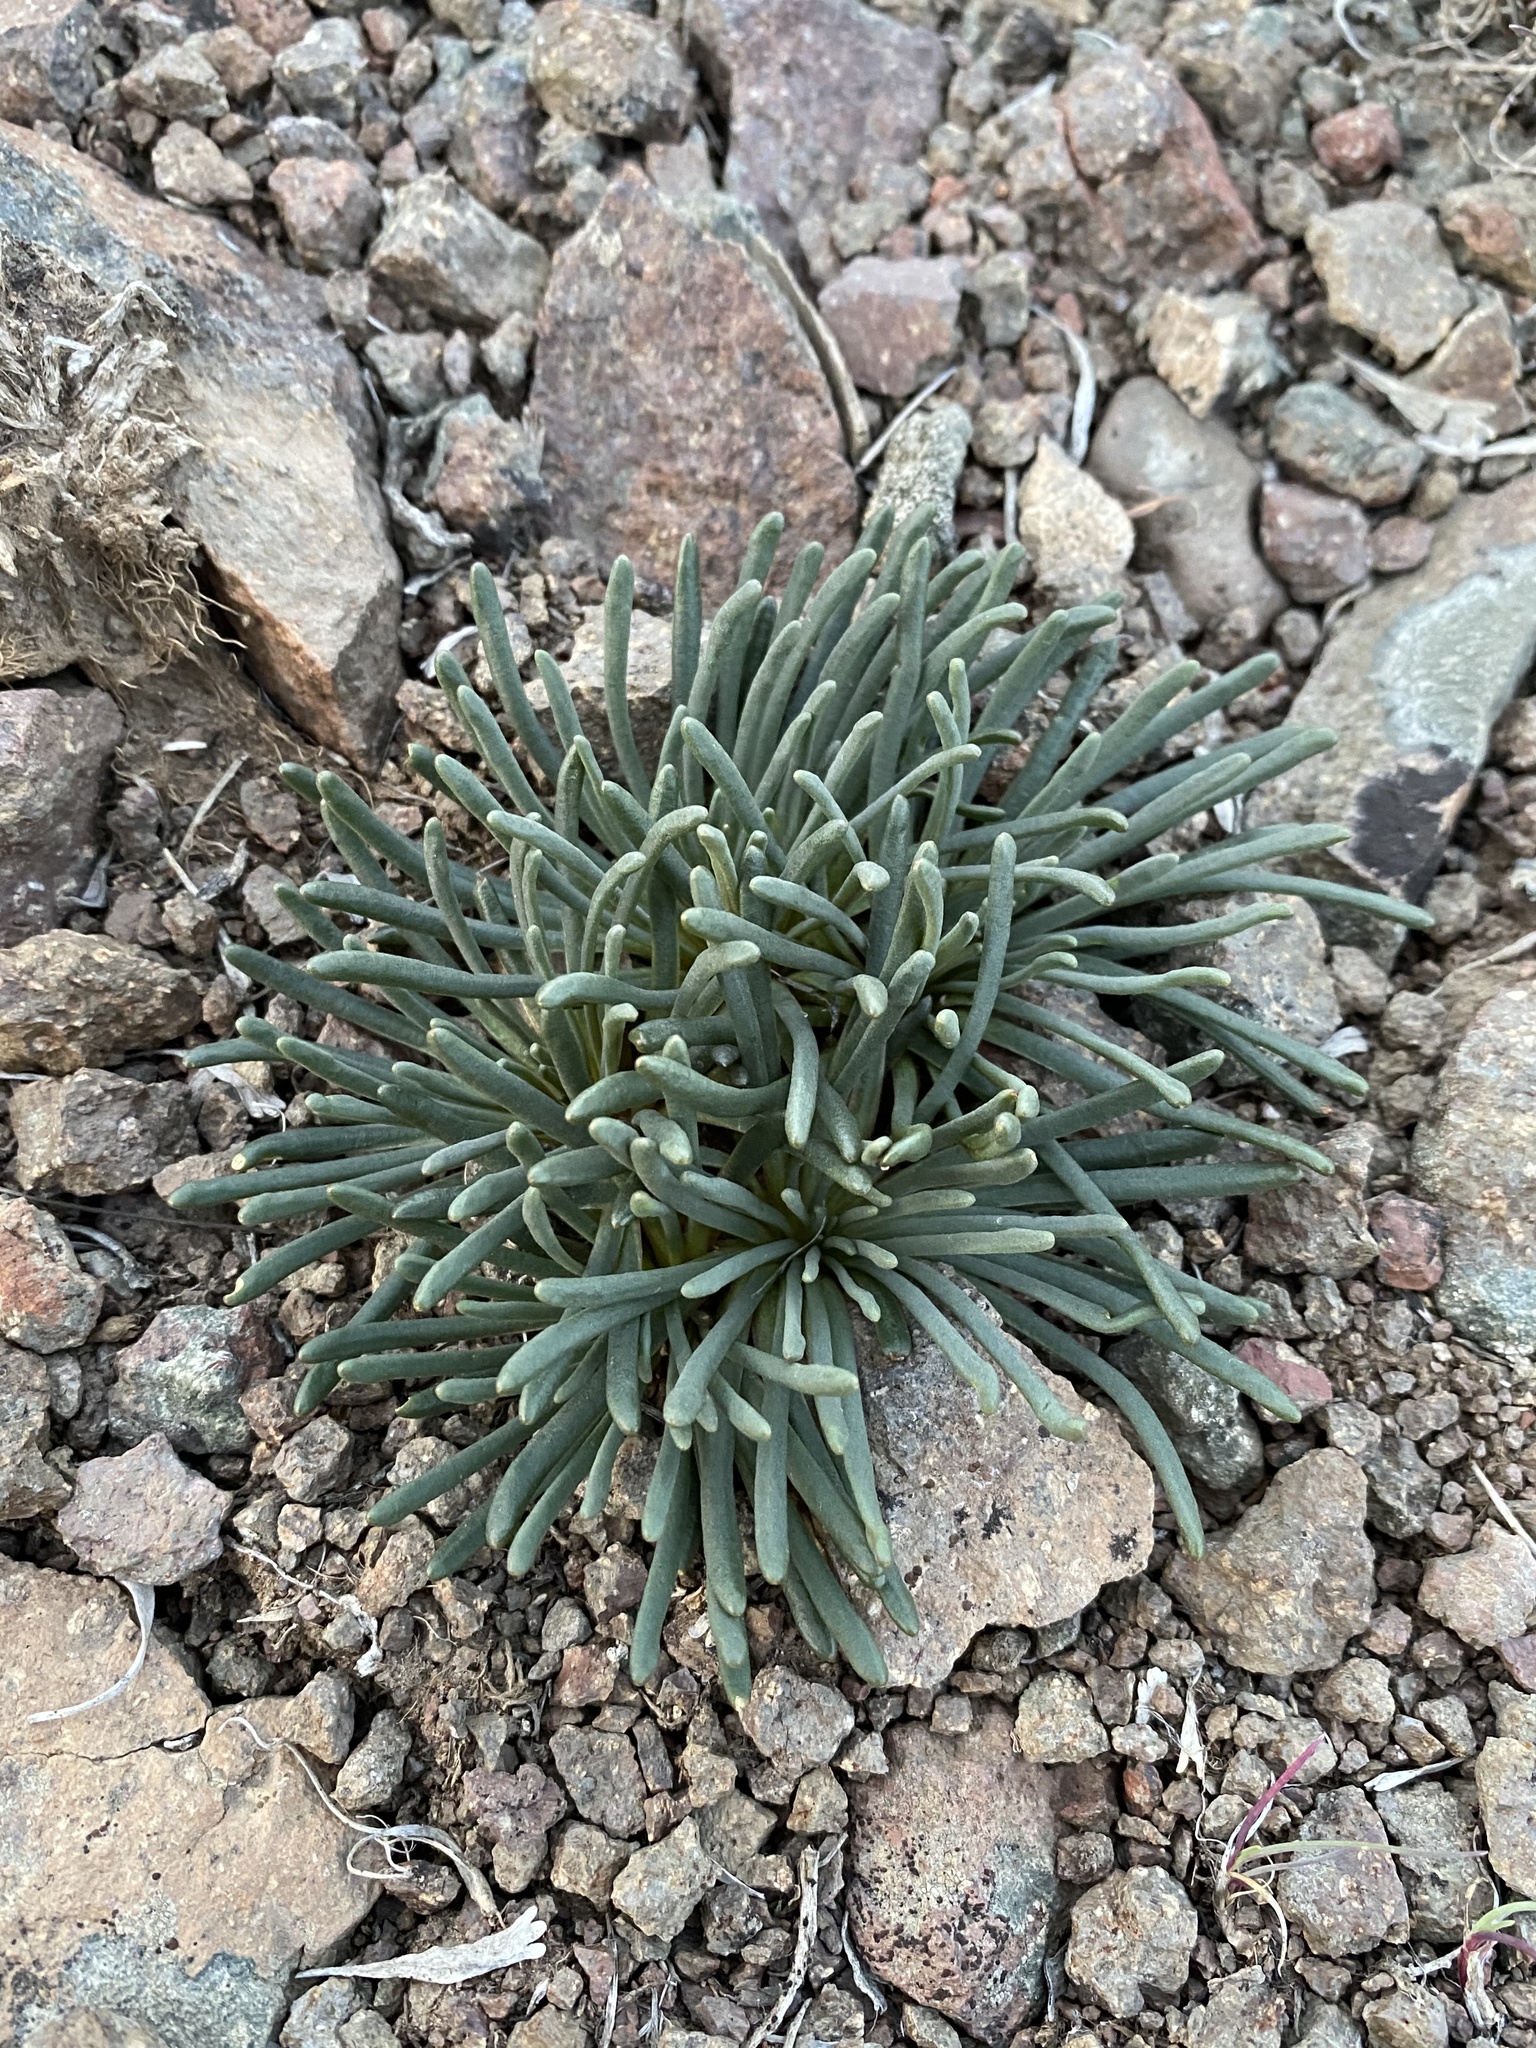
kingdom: Plantae
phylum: Tracheophyta
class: Magnoliopsida
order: Caryophyllales
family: Montiaceae
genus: Lewisia
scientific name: Lewisia rediviva
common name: Bitter-root
